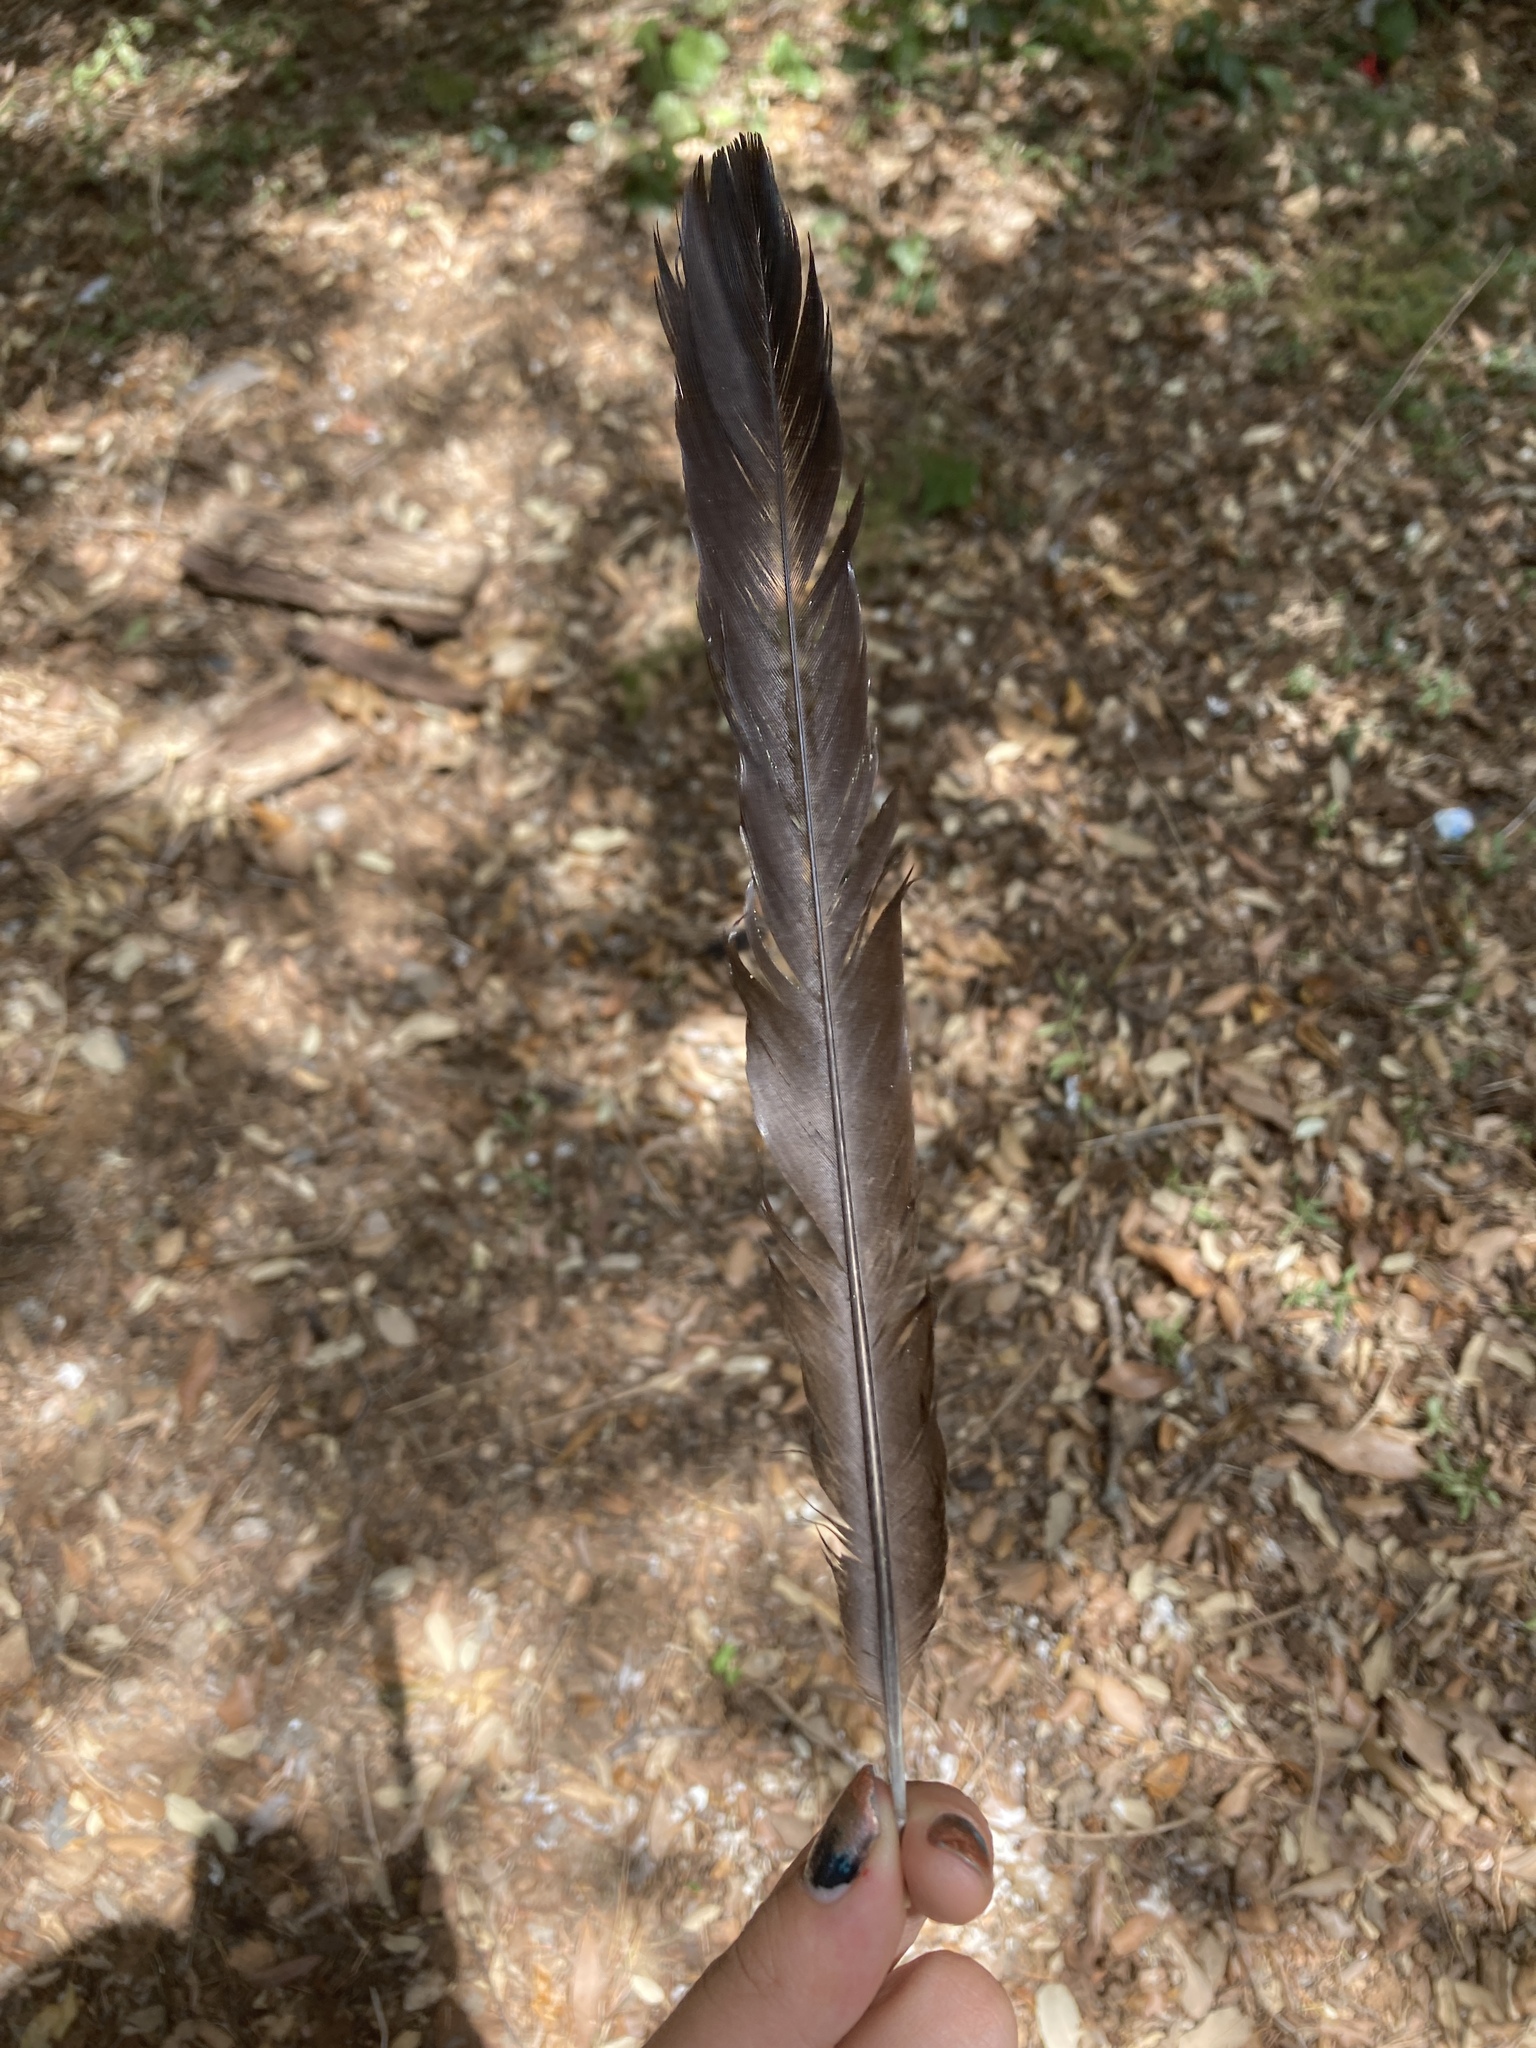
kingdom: Animalia
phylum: Chordata
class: Aves
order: Passeriformes
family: Corvidae
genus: Pica
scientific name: Pica pica
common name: Eurasian magpie
